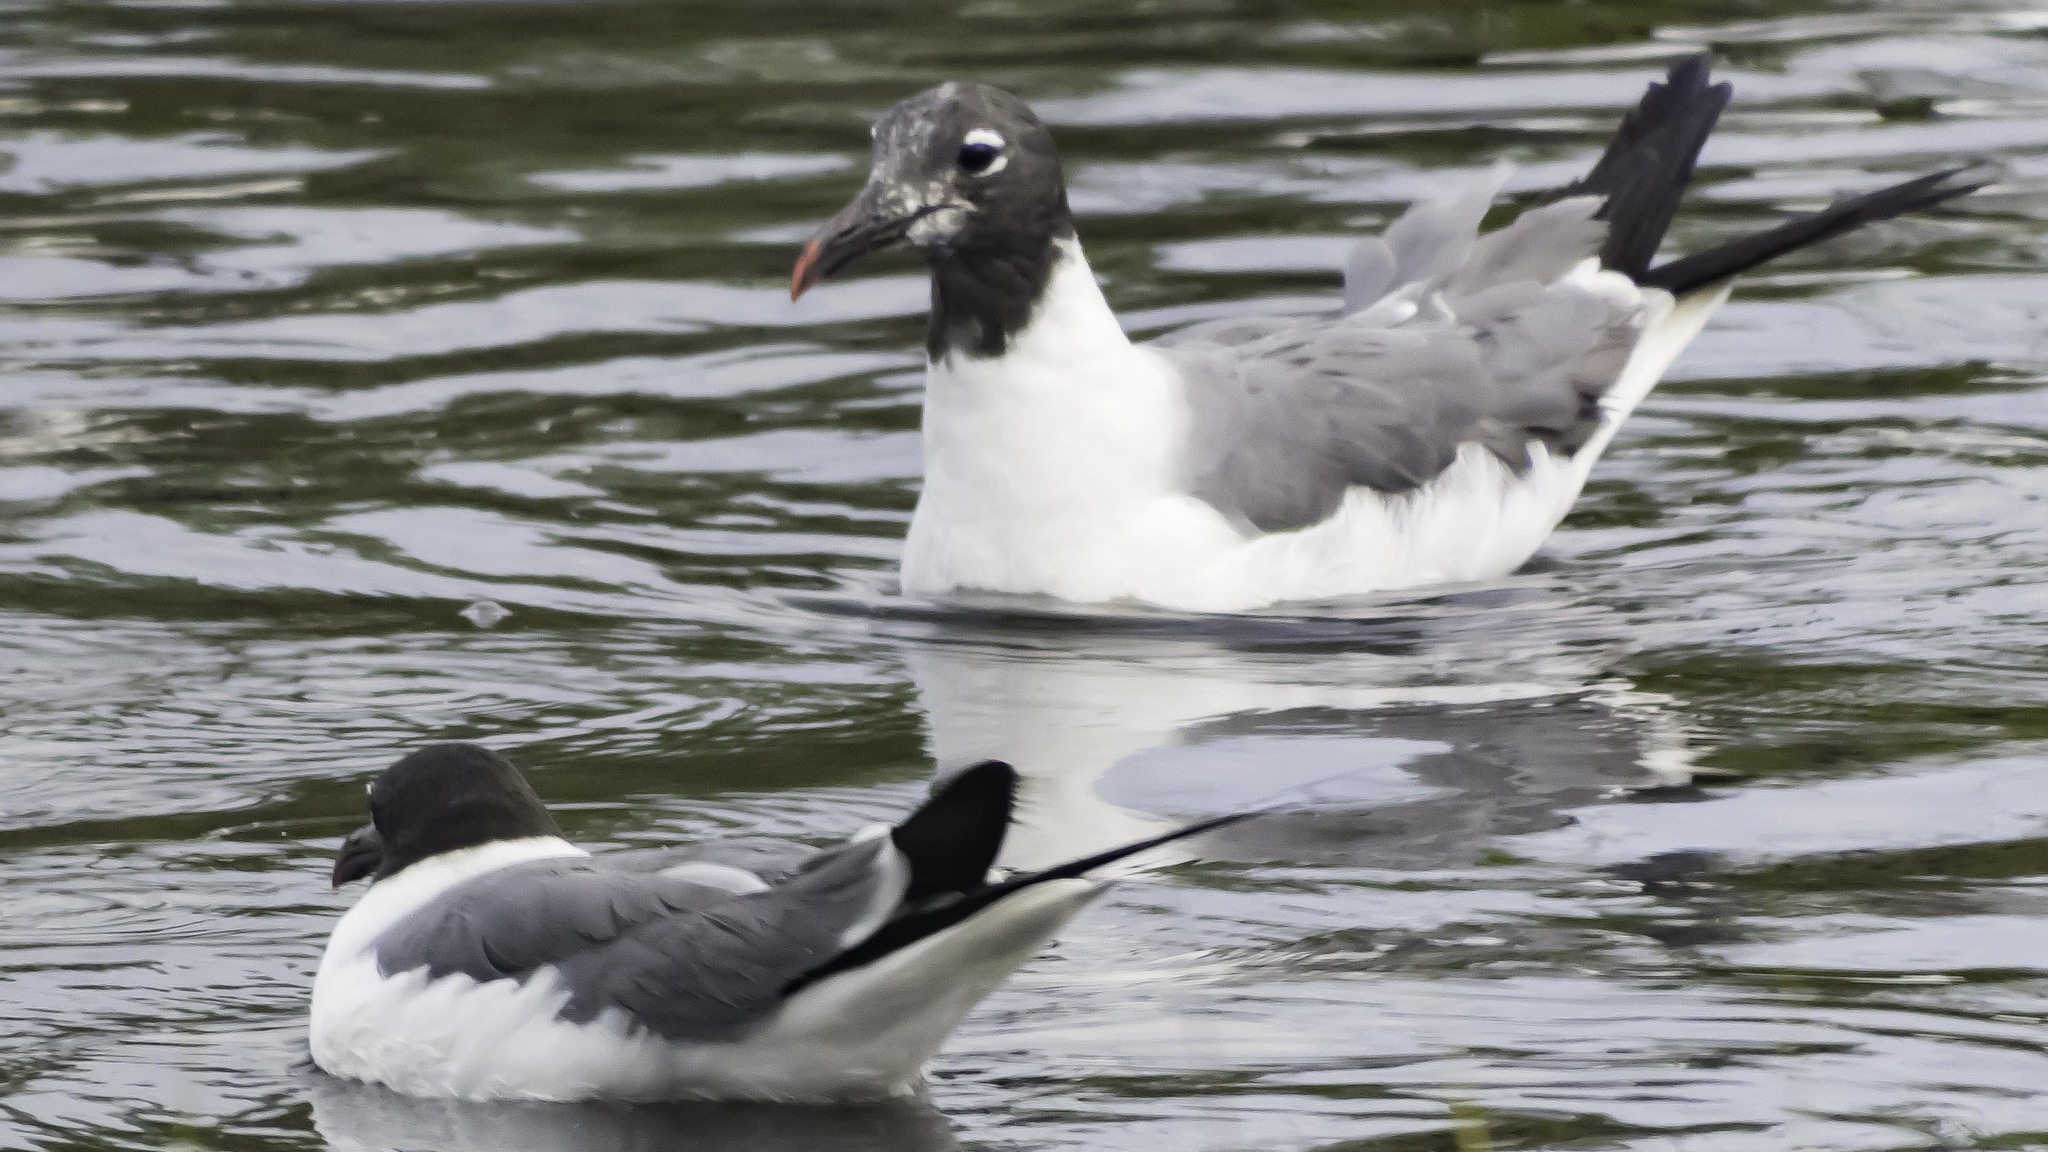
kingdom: Animalia
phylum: Chordata
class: Aves
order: Charadriiformes
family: Laridae
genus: Leucophaeus
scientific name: Leucophaeus atricilla
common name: Laughing gull
